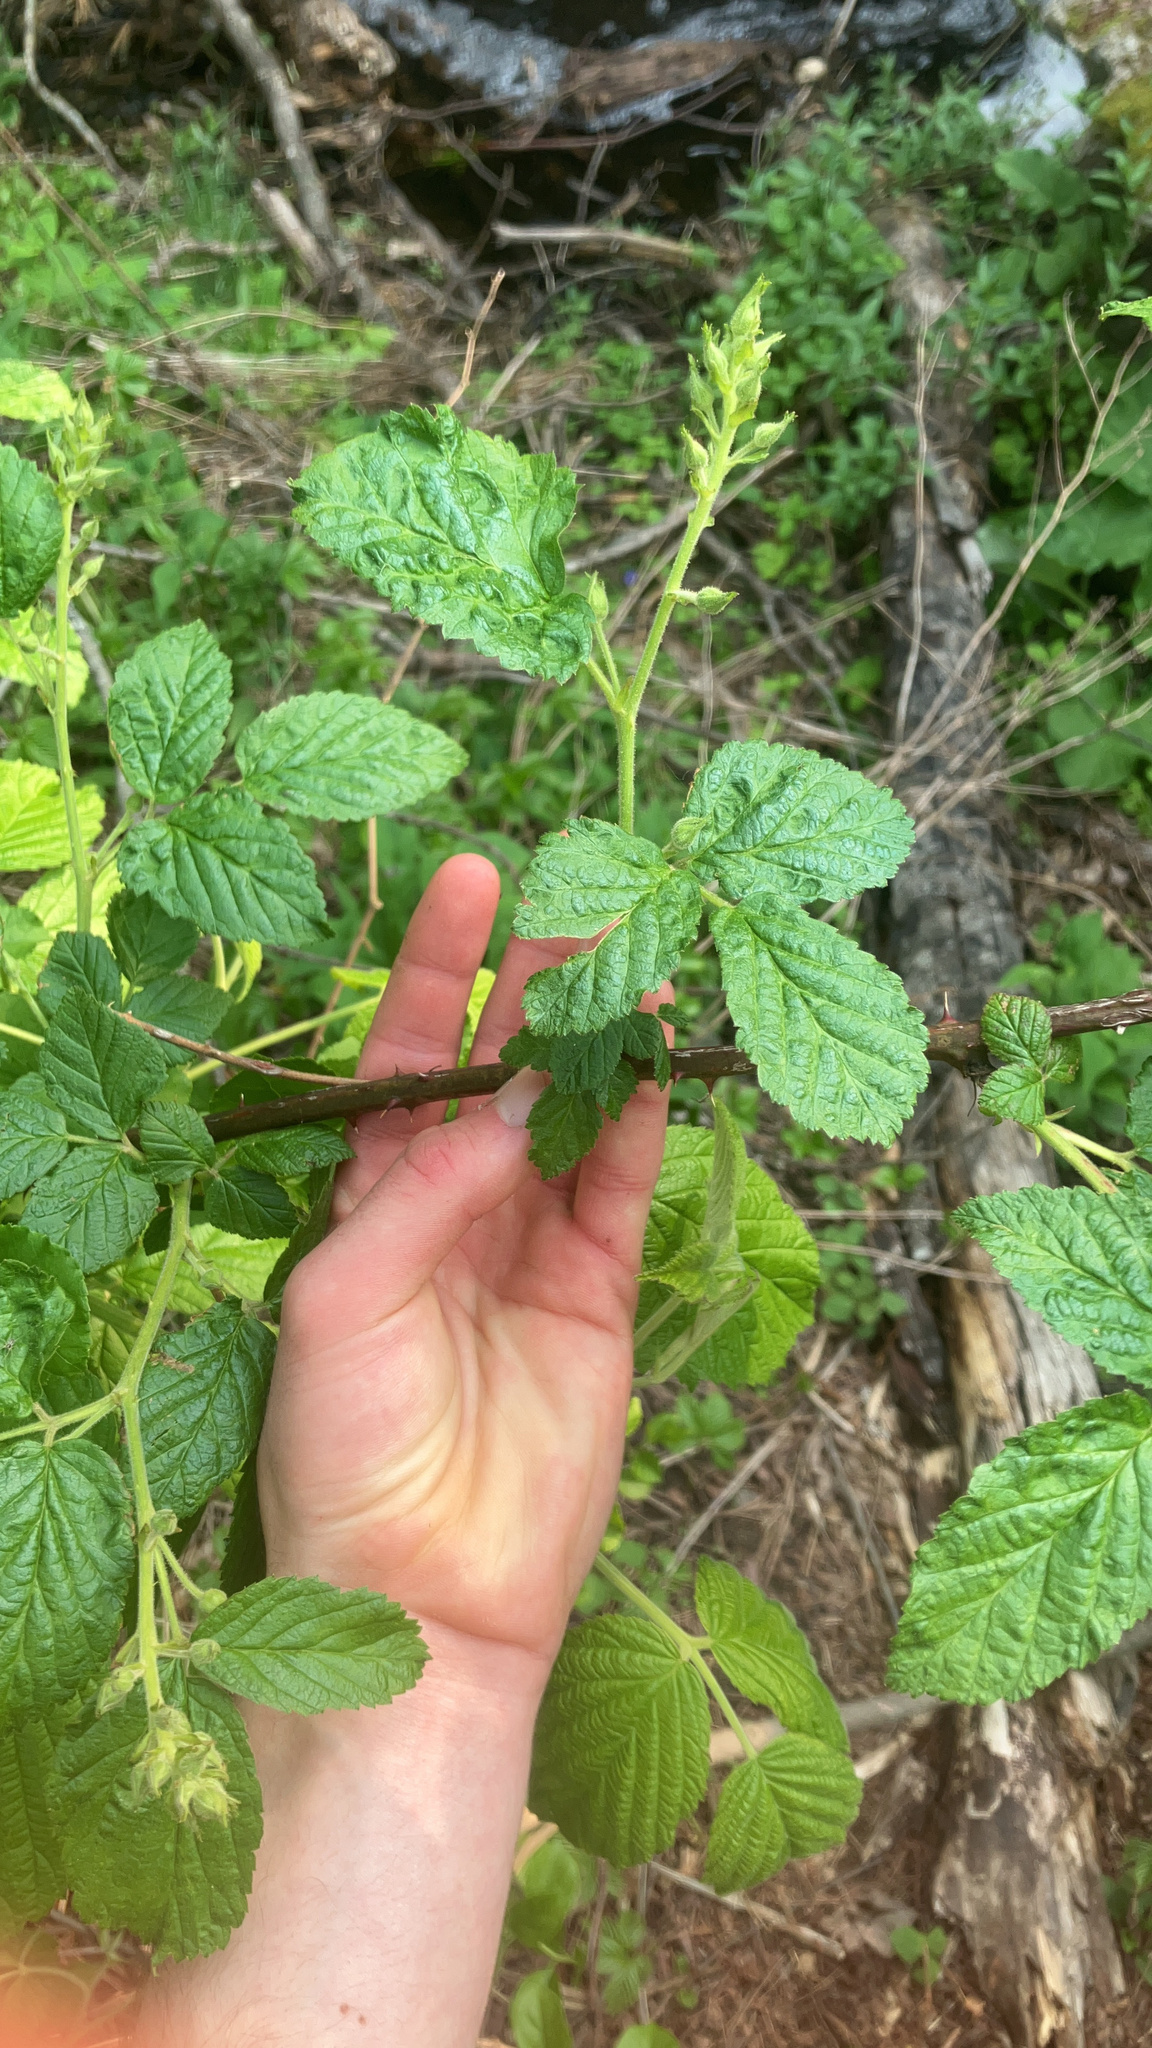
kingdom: Plantae
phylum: Tracheophyta
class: Magnoliopsida
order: Rosales
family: Rosaceae
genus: Rubus
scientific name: Rubus idaeus
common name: Raspberry
